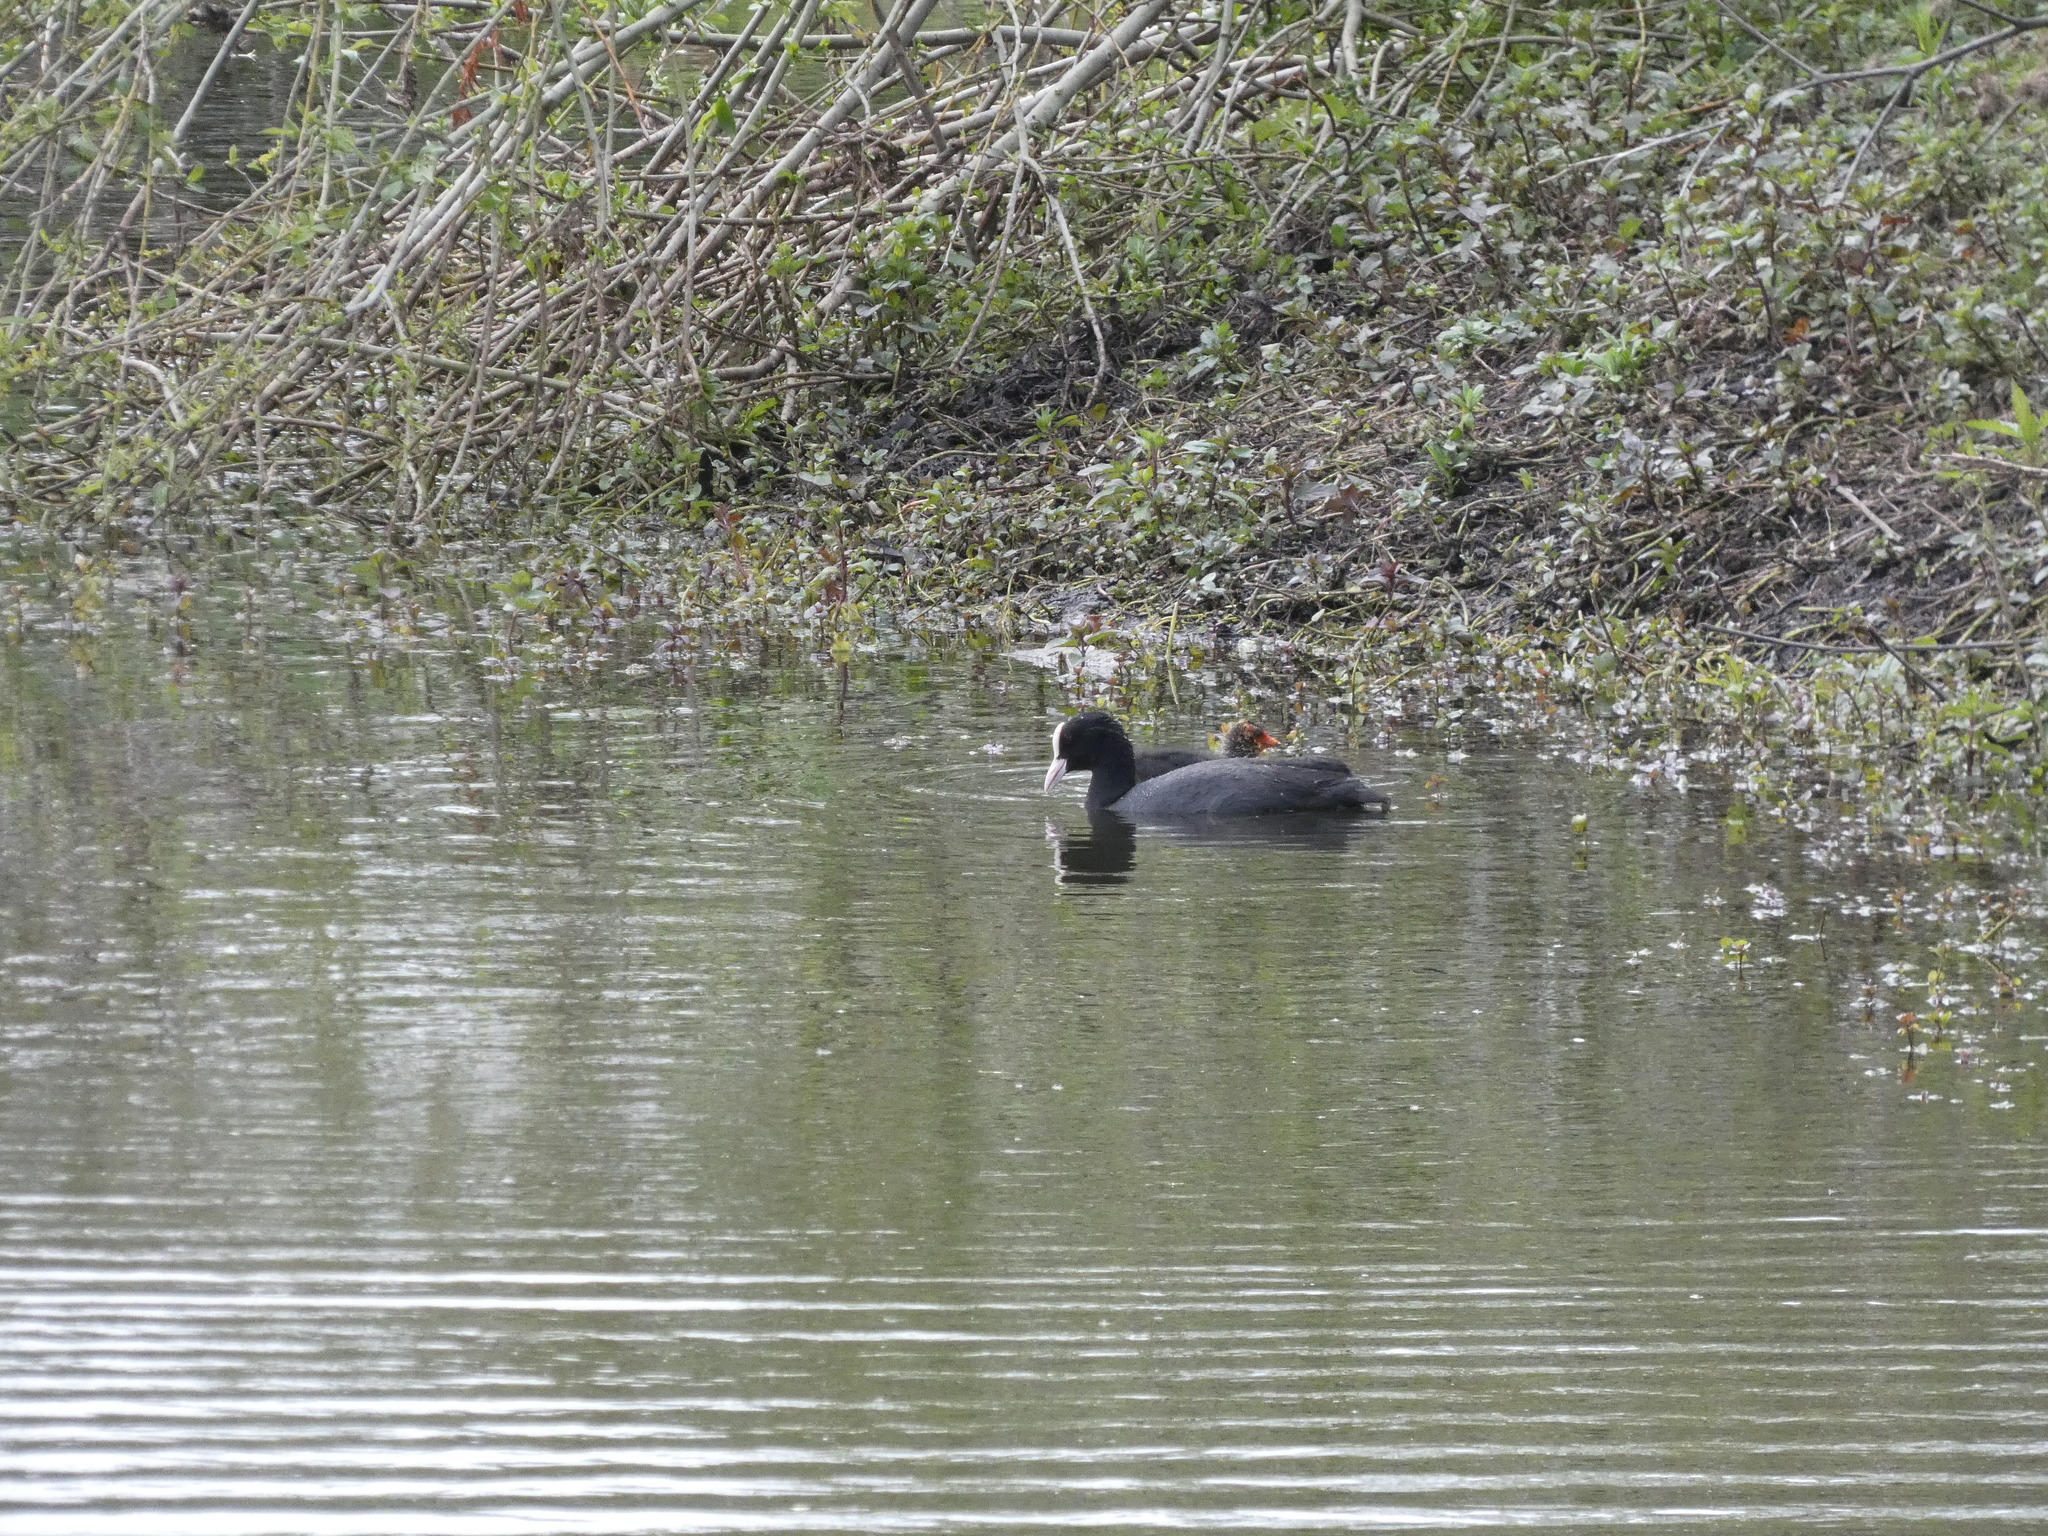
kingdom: Animalia
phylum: Chordata
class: Aves
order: Gruiformes
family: Rallidae
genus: Fulica
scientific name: Fulica atra
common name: Eurasian coot
